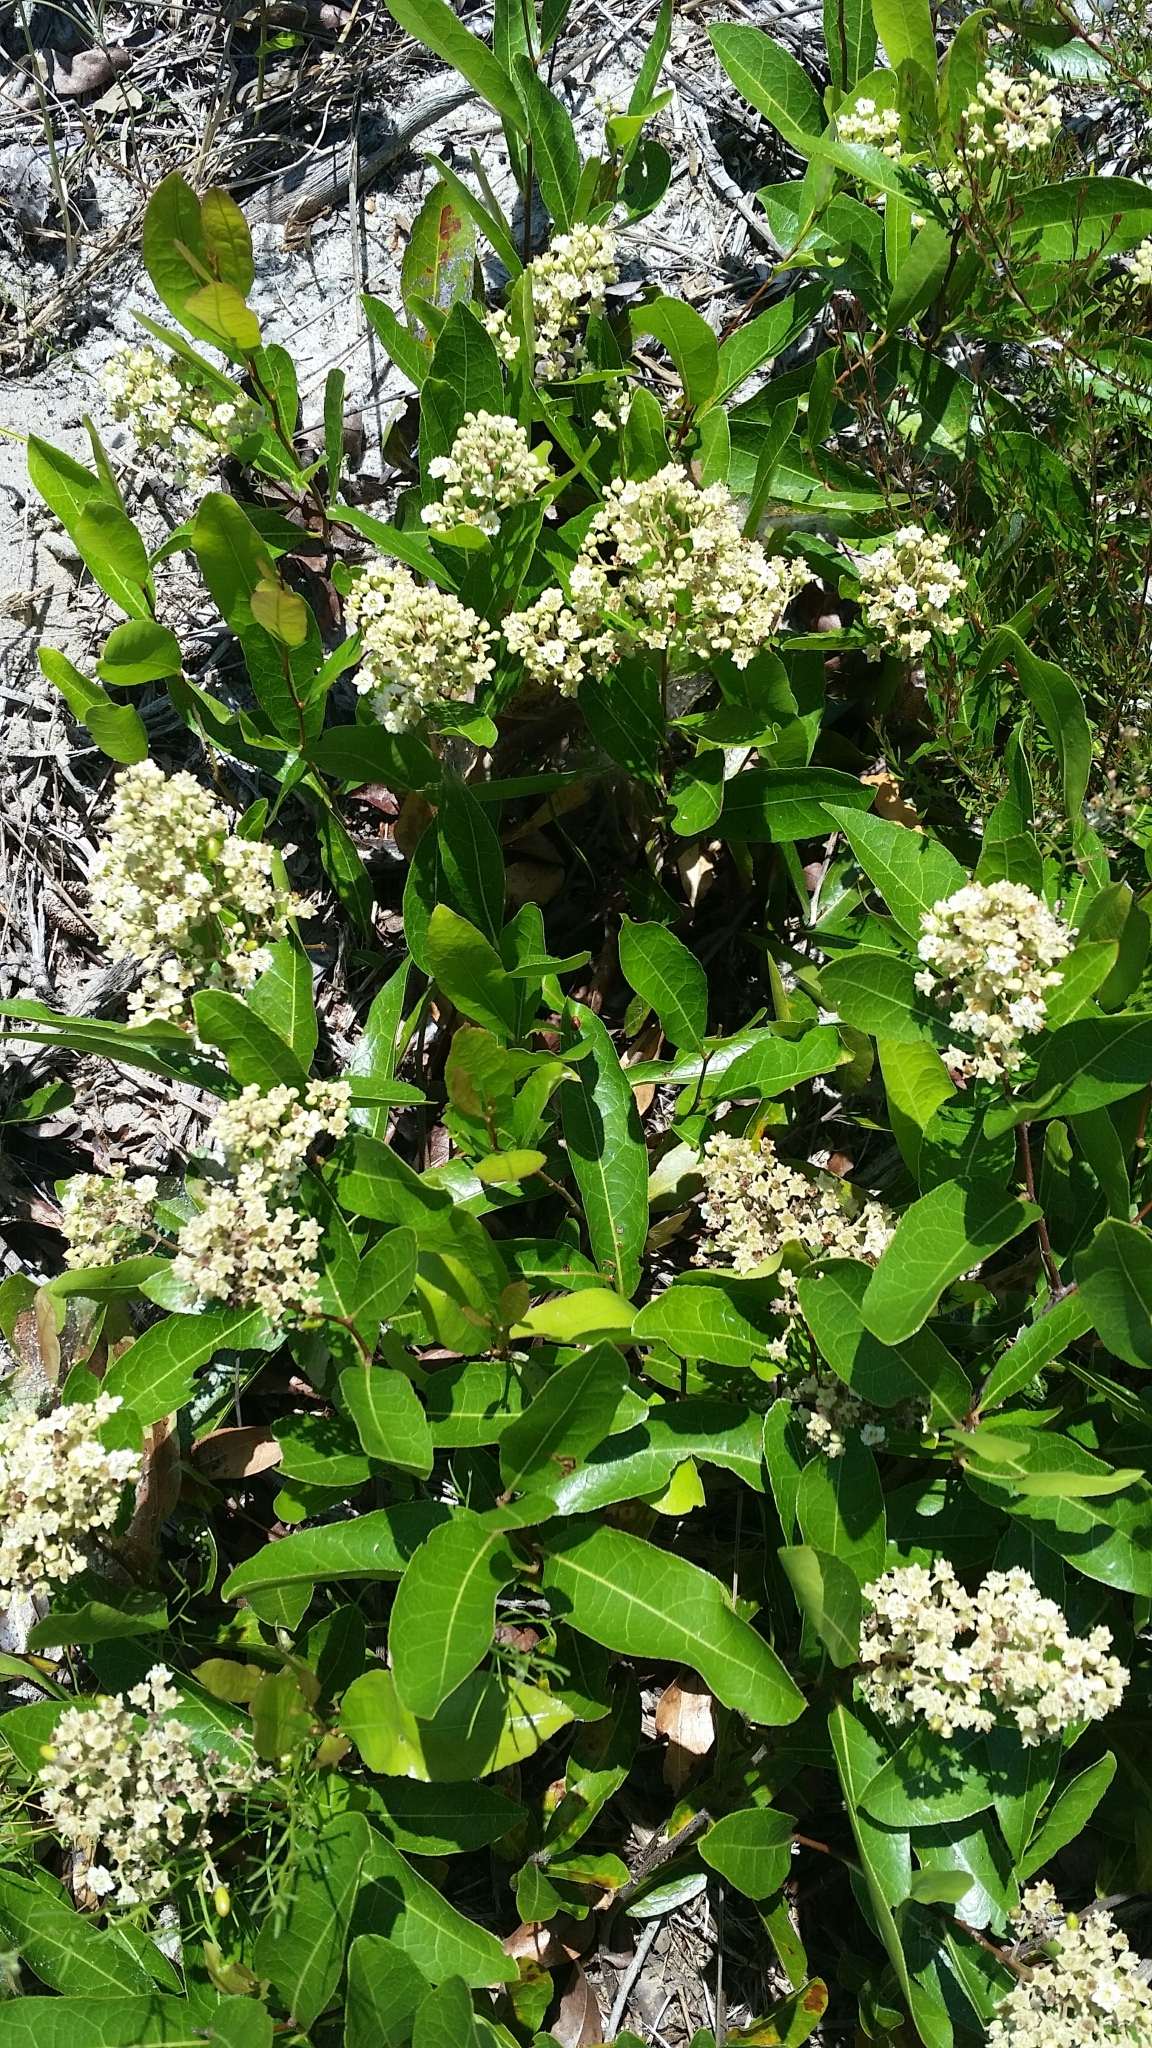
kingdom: Plantae
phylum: Tracheophyta
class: Magnoliopsida
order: Malpighiales
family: Chrysobalanaceae
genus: Geobalanus
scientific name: Geobalanus oblongifolius
